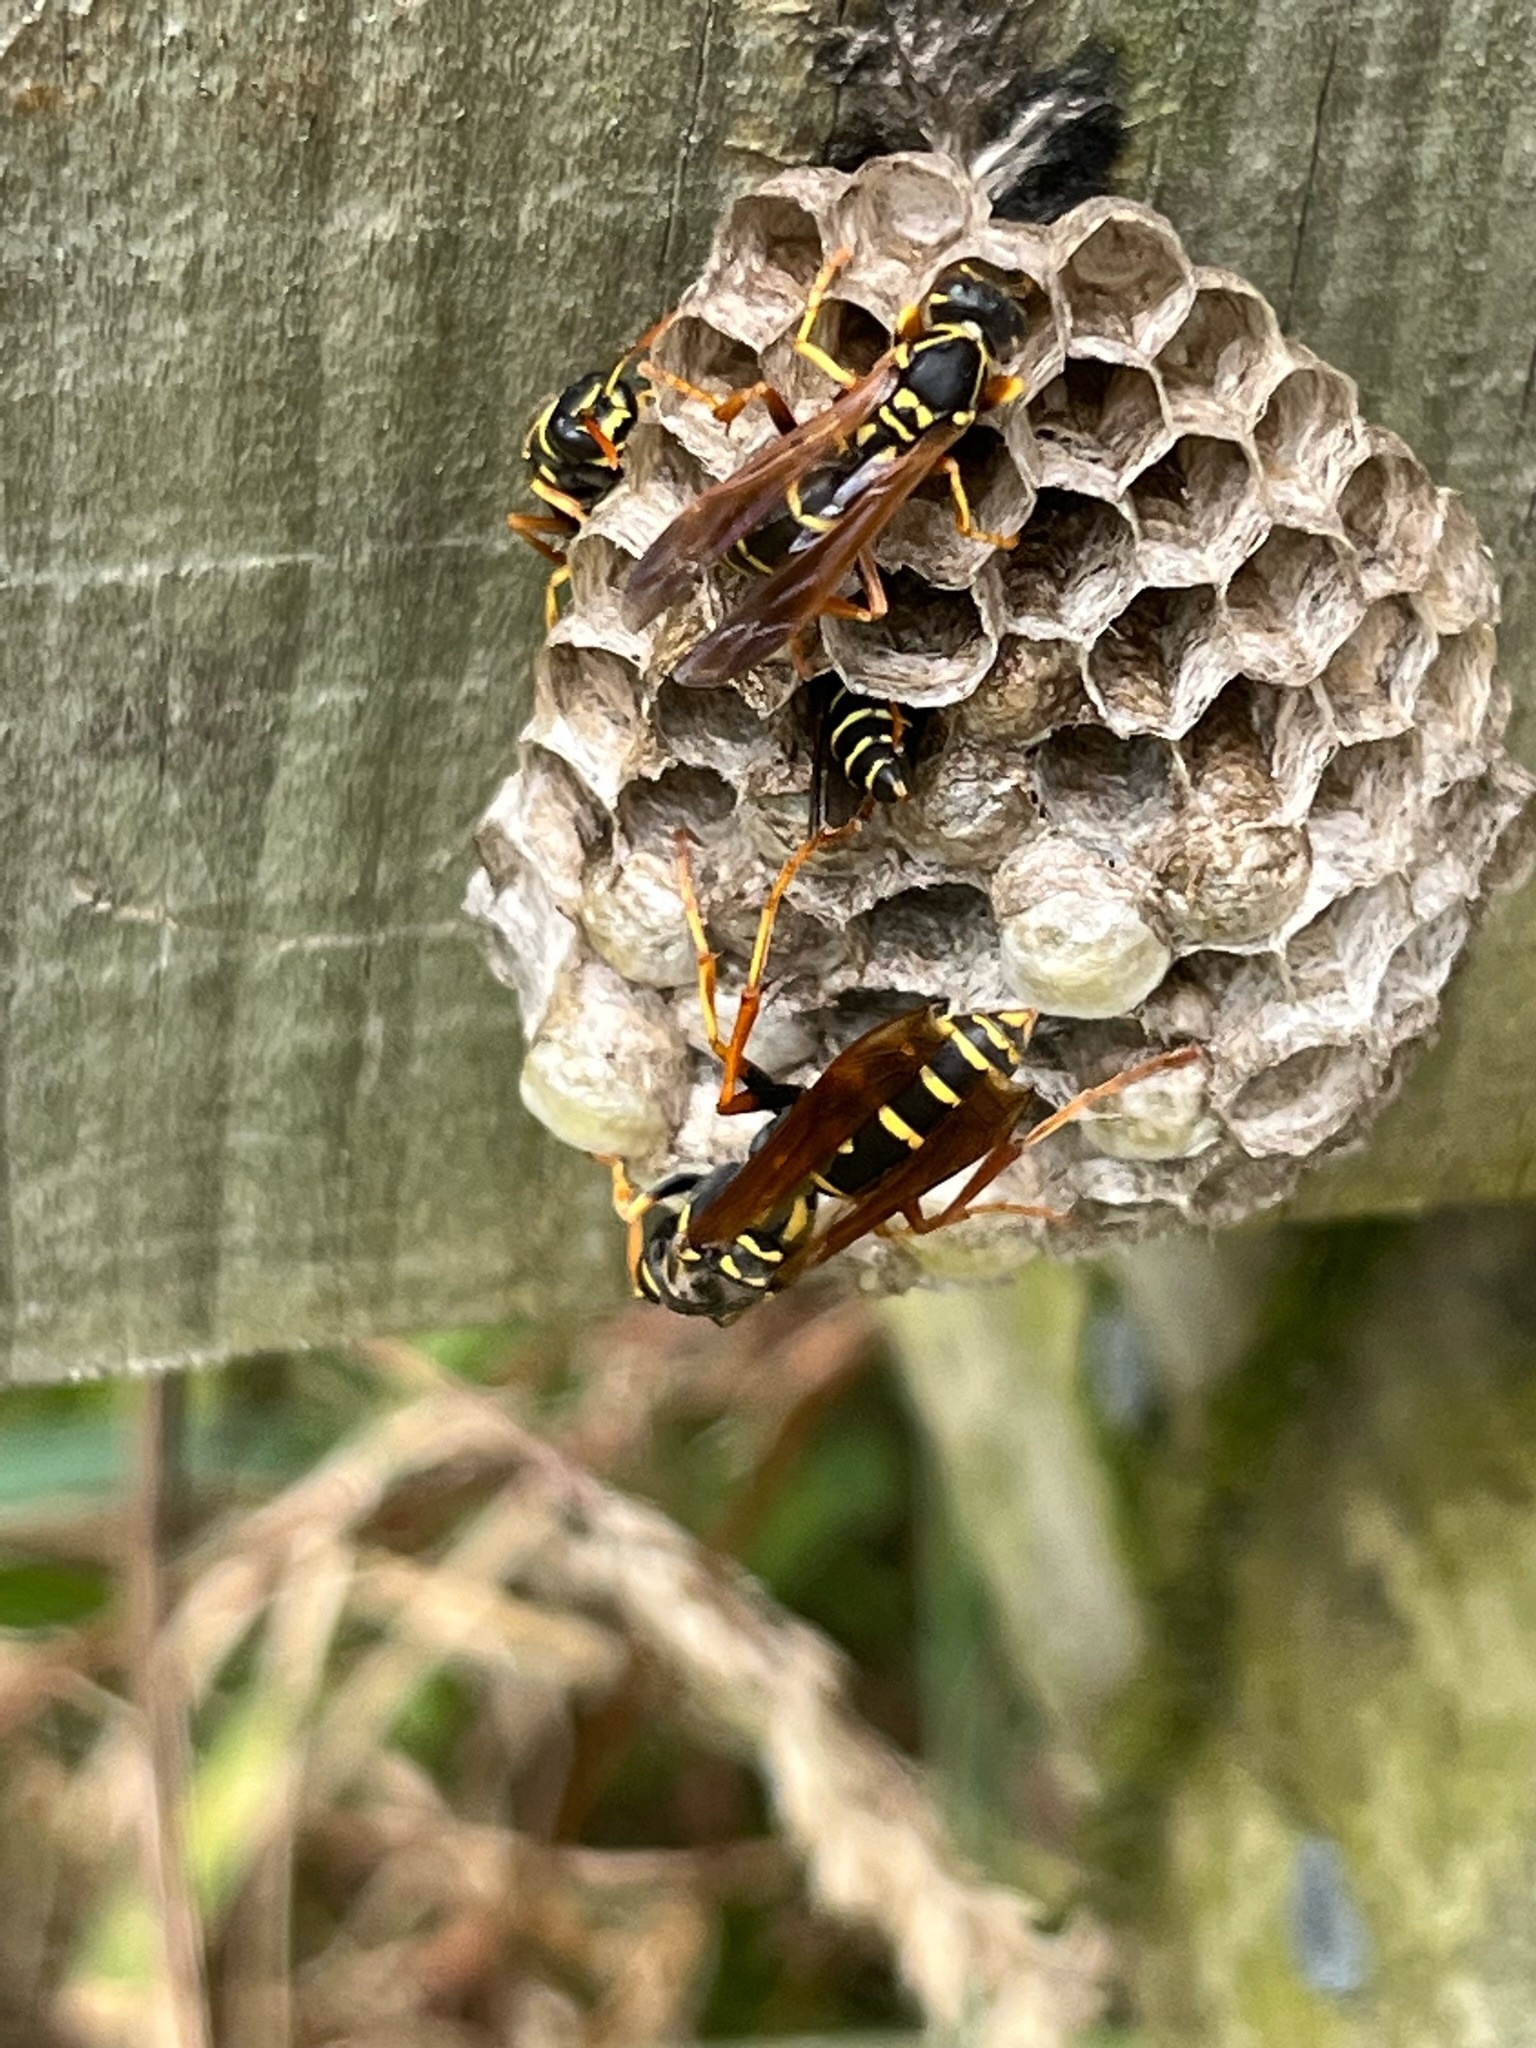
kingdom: Animalia
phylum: Arthropoda
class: Insecta
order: Hymenoptera
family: Eumenidae
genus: Polistes
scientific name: Polistes chinensis
